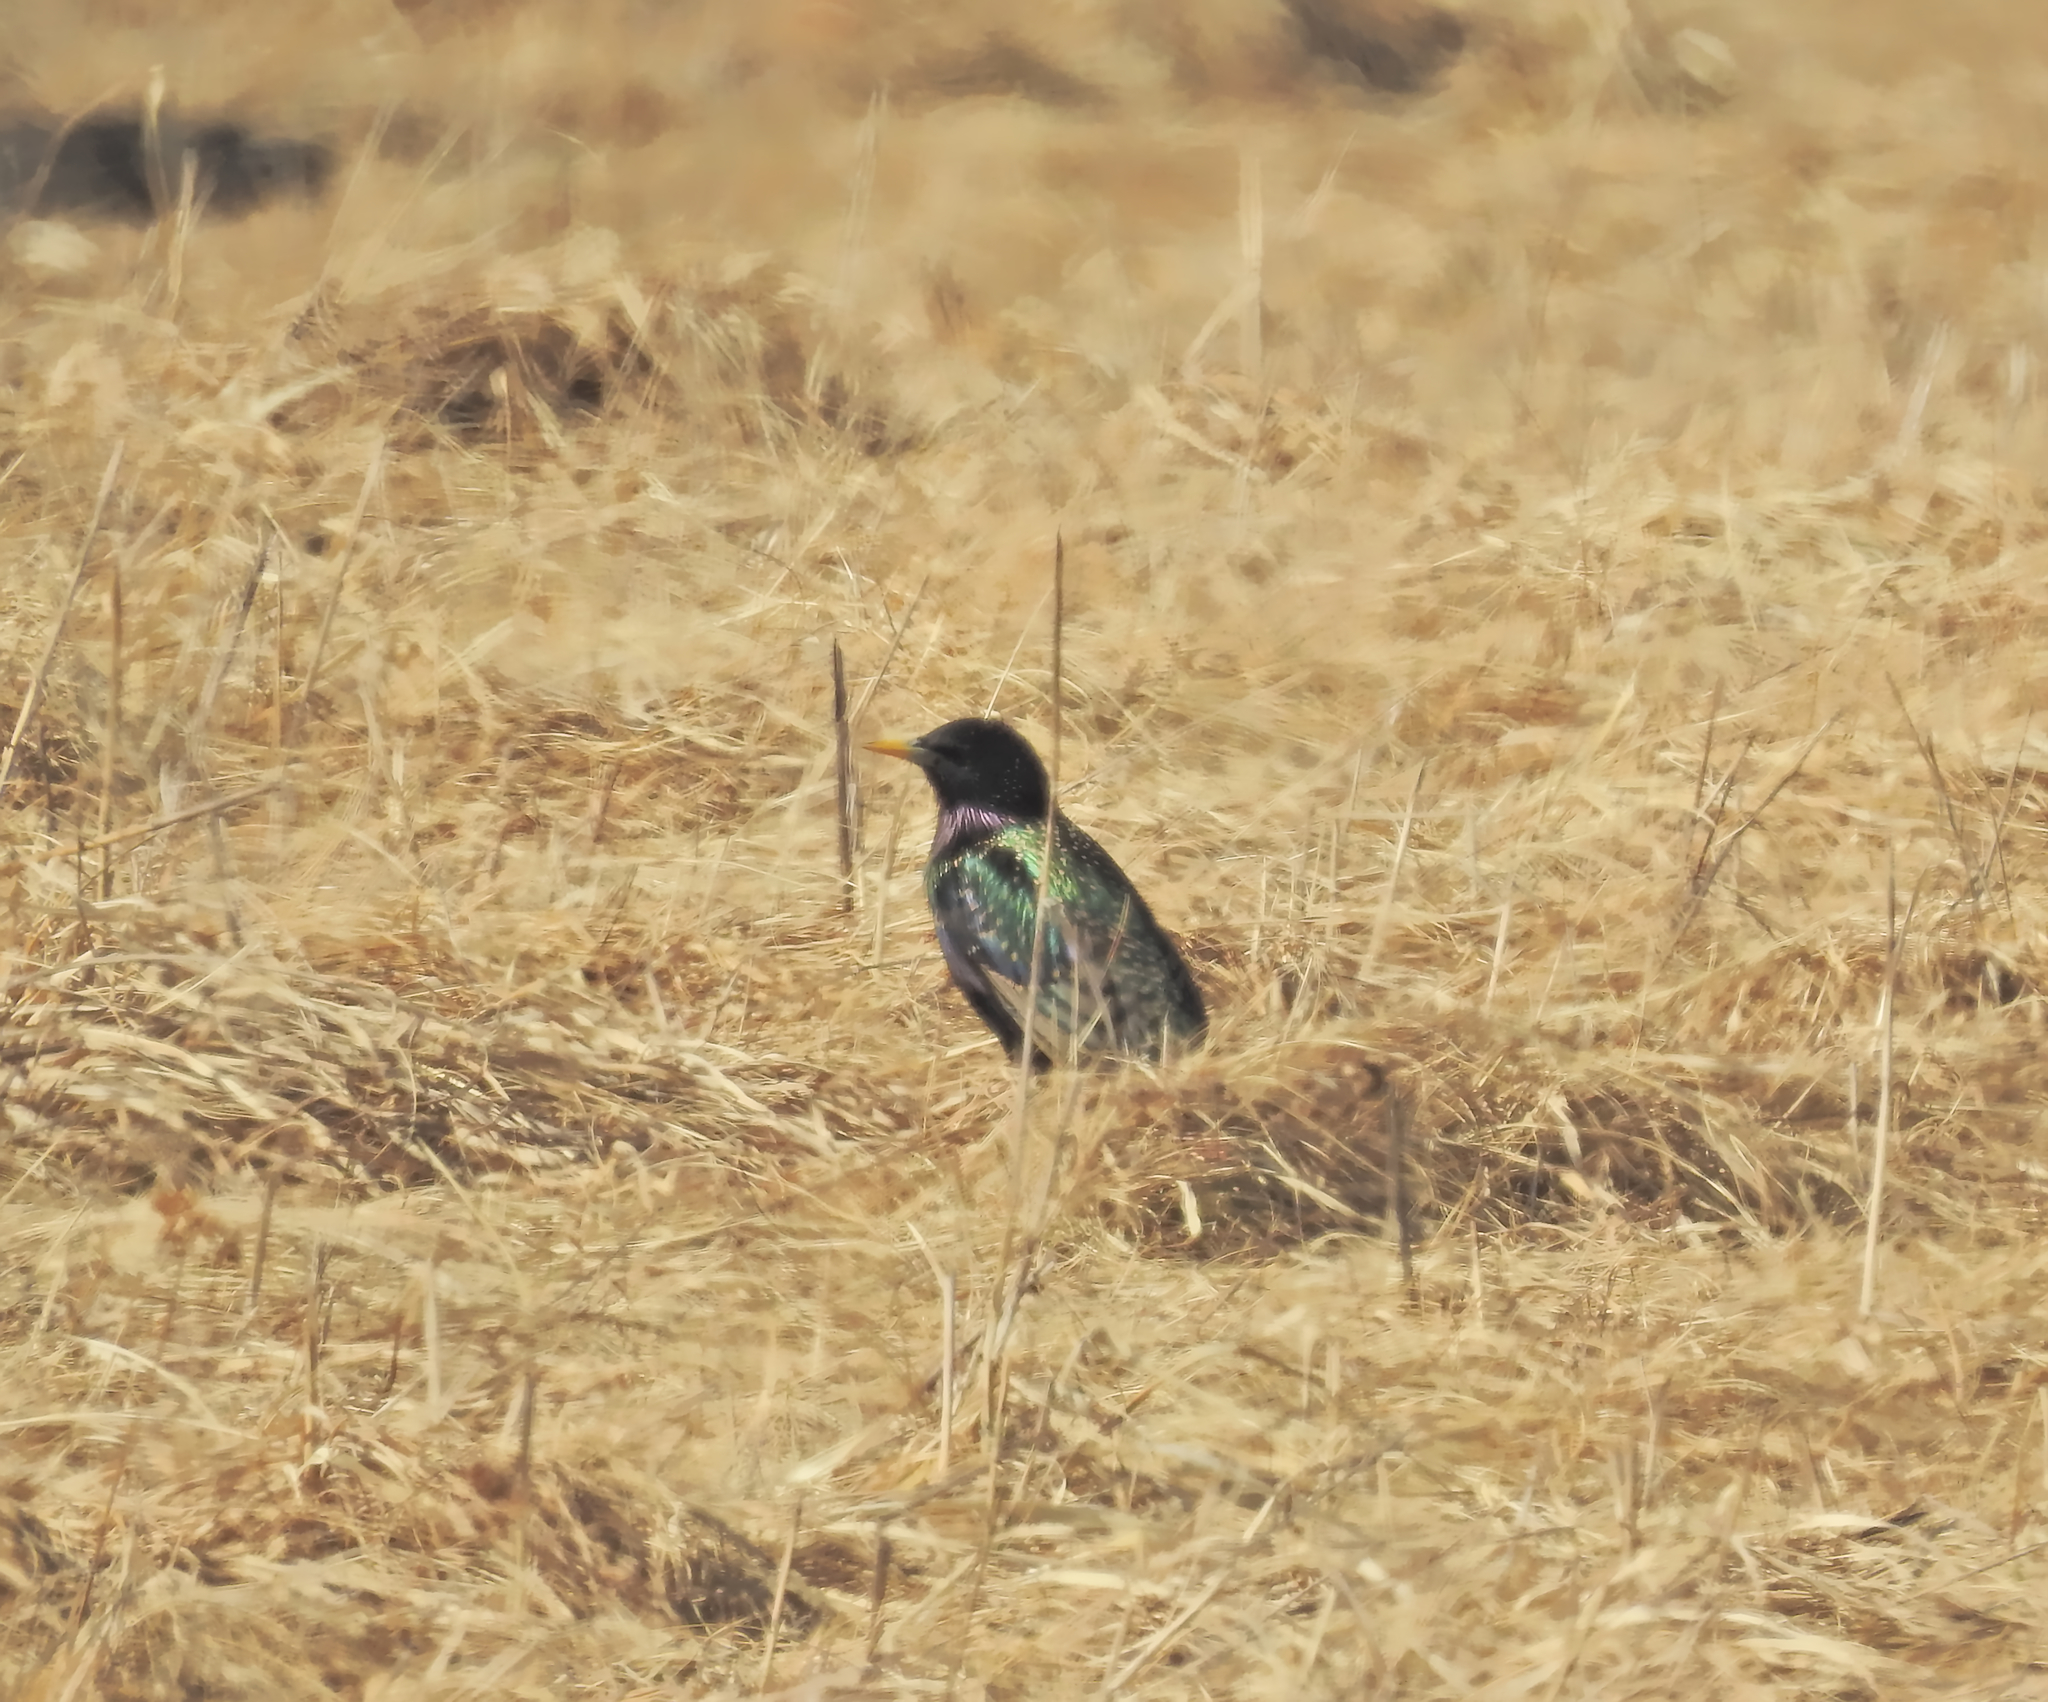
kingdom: Animalia
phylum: Chordata
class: Aves
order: Passeriformes
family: Sturnidae
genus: Sturnus
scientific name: Sturnus vulgaris
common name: Common starling
